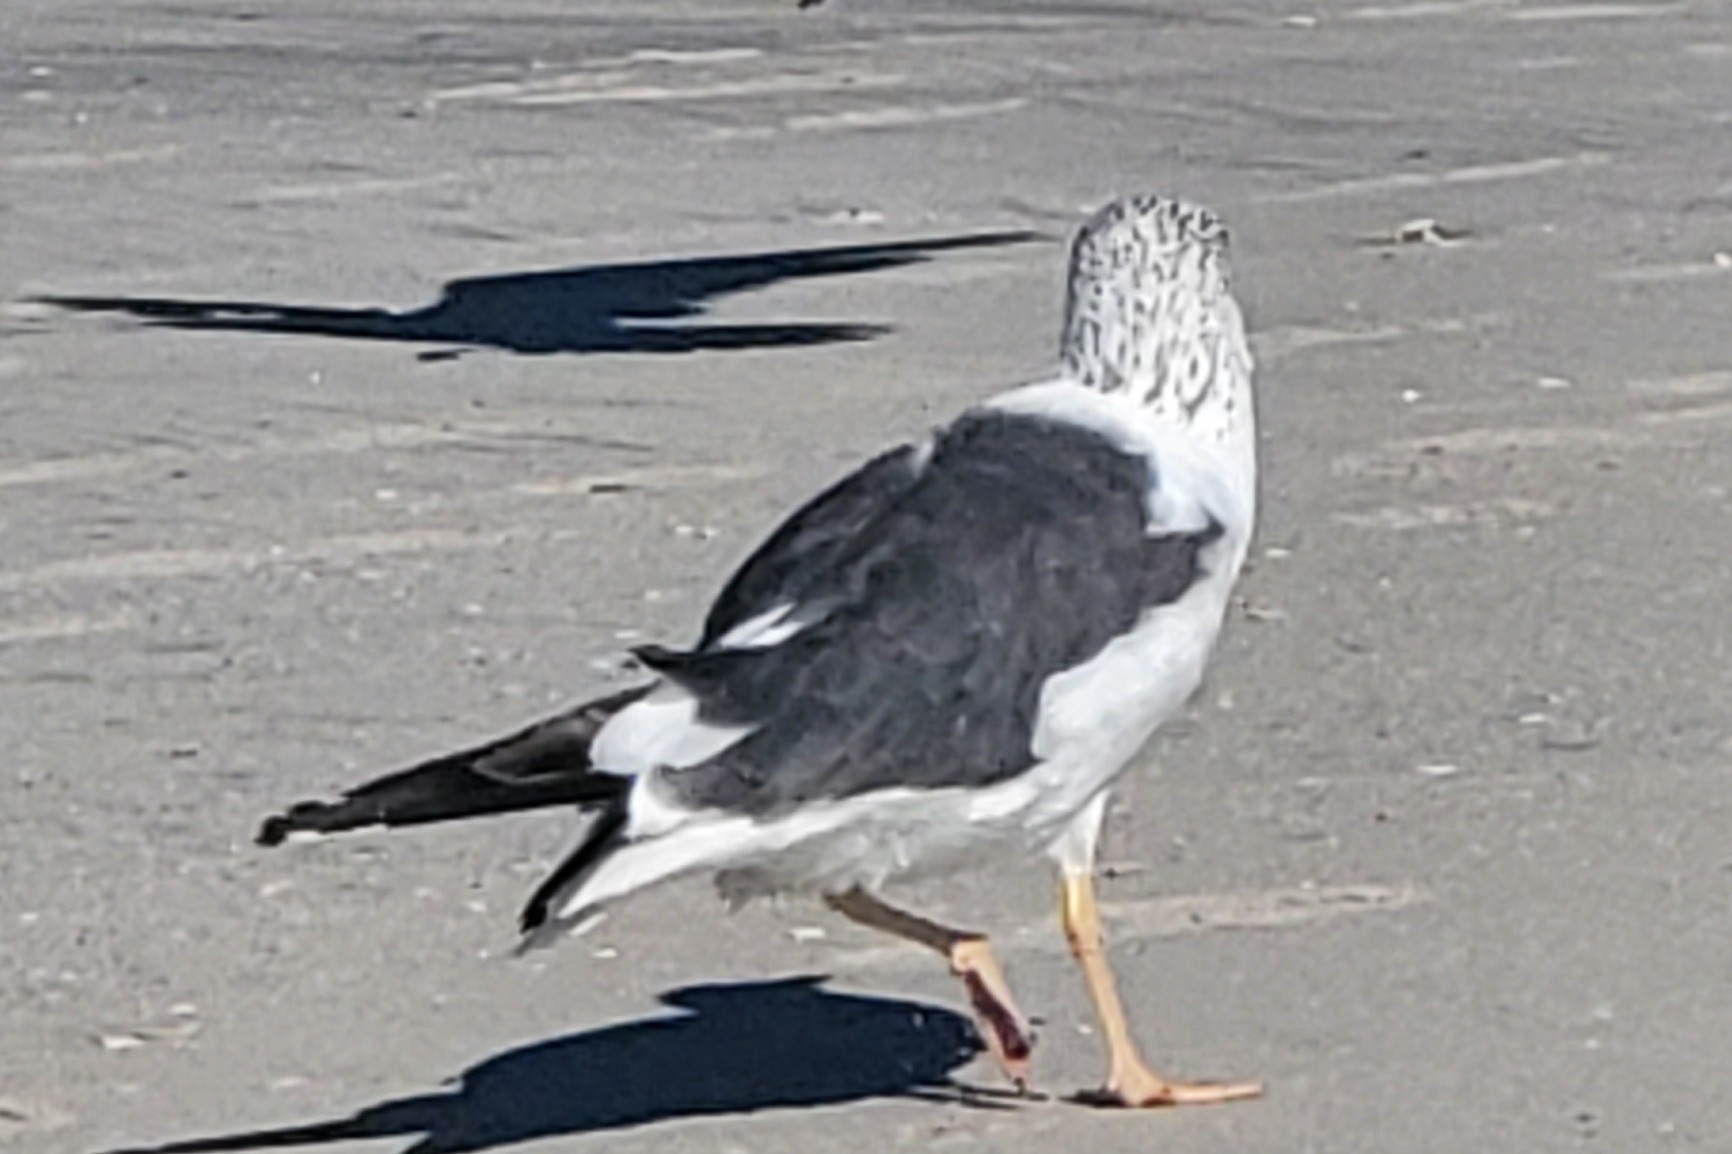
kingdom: Animalia
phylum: Chordata
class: Aves
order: Charadriiformes
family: Laridae
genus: Larus
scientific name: Larus fuscus
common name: Lesser black-backed gull
